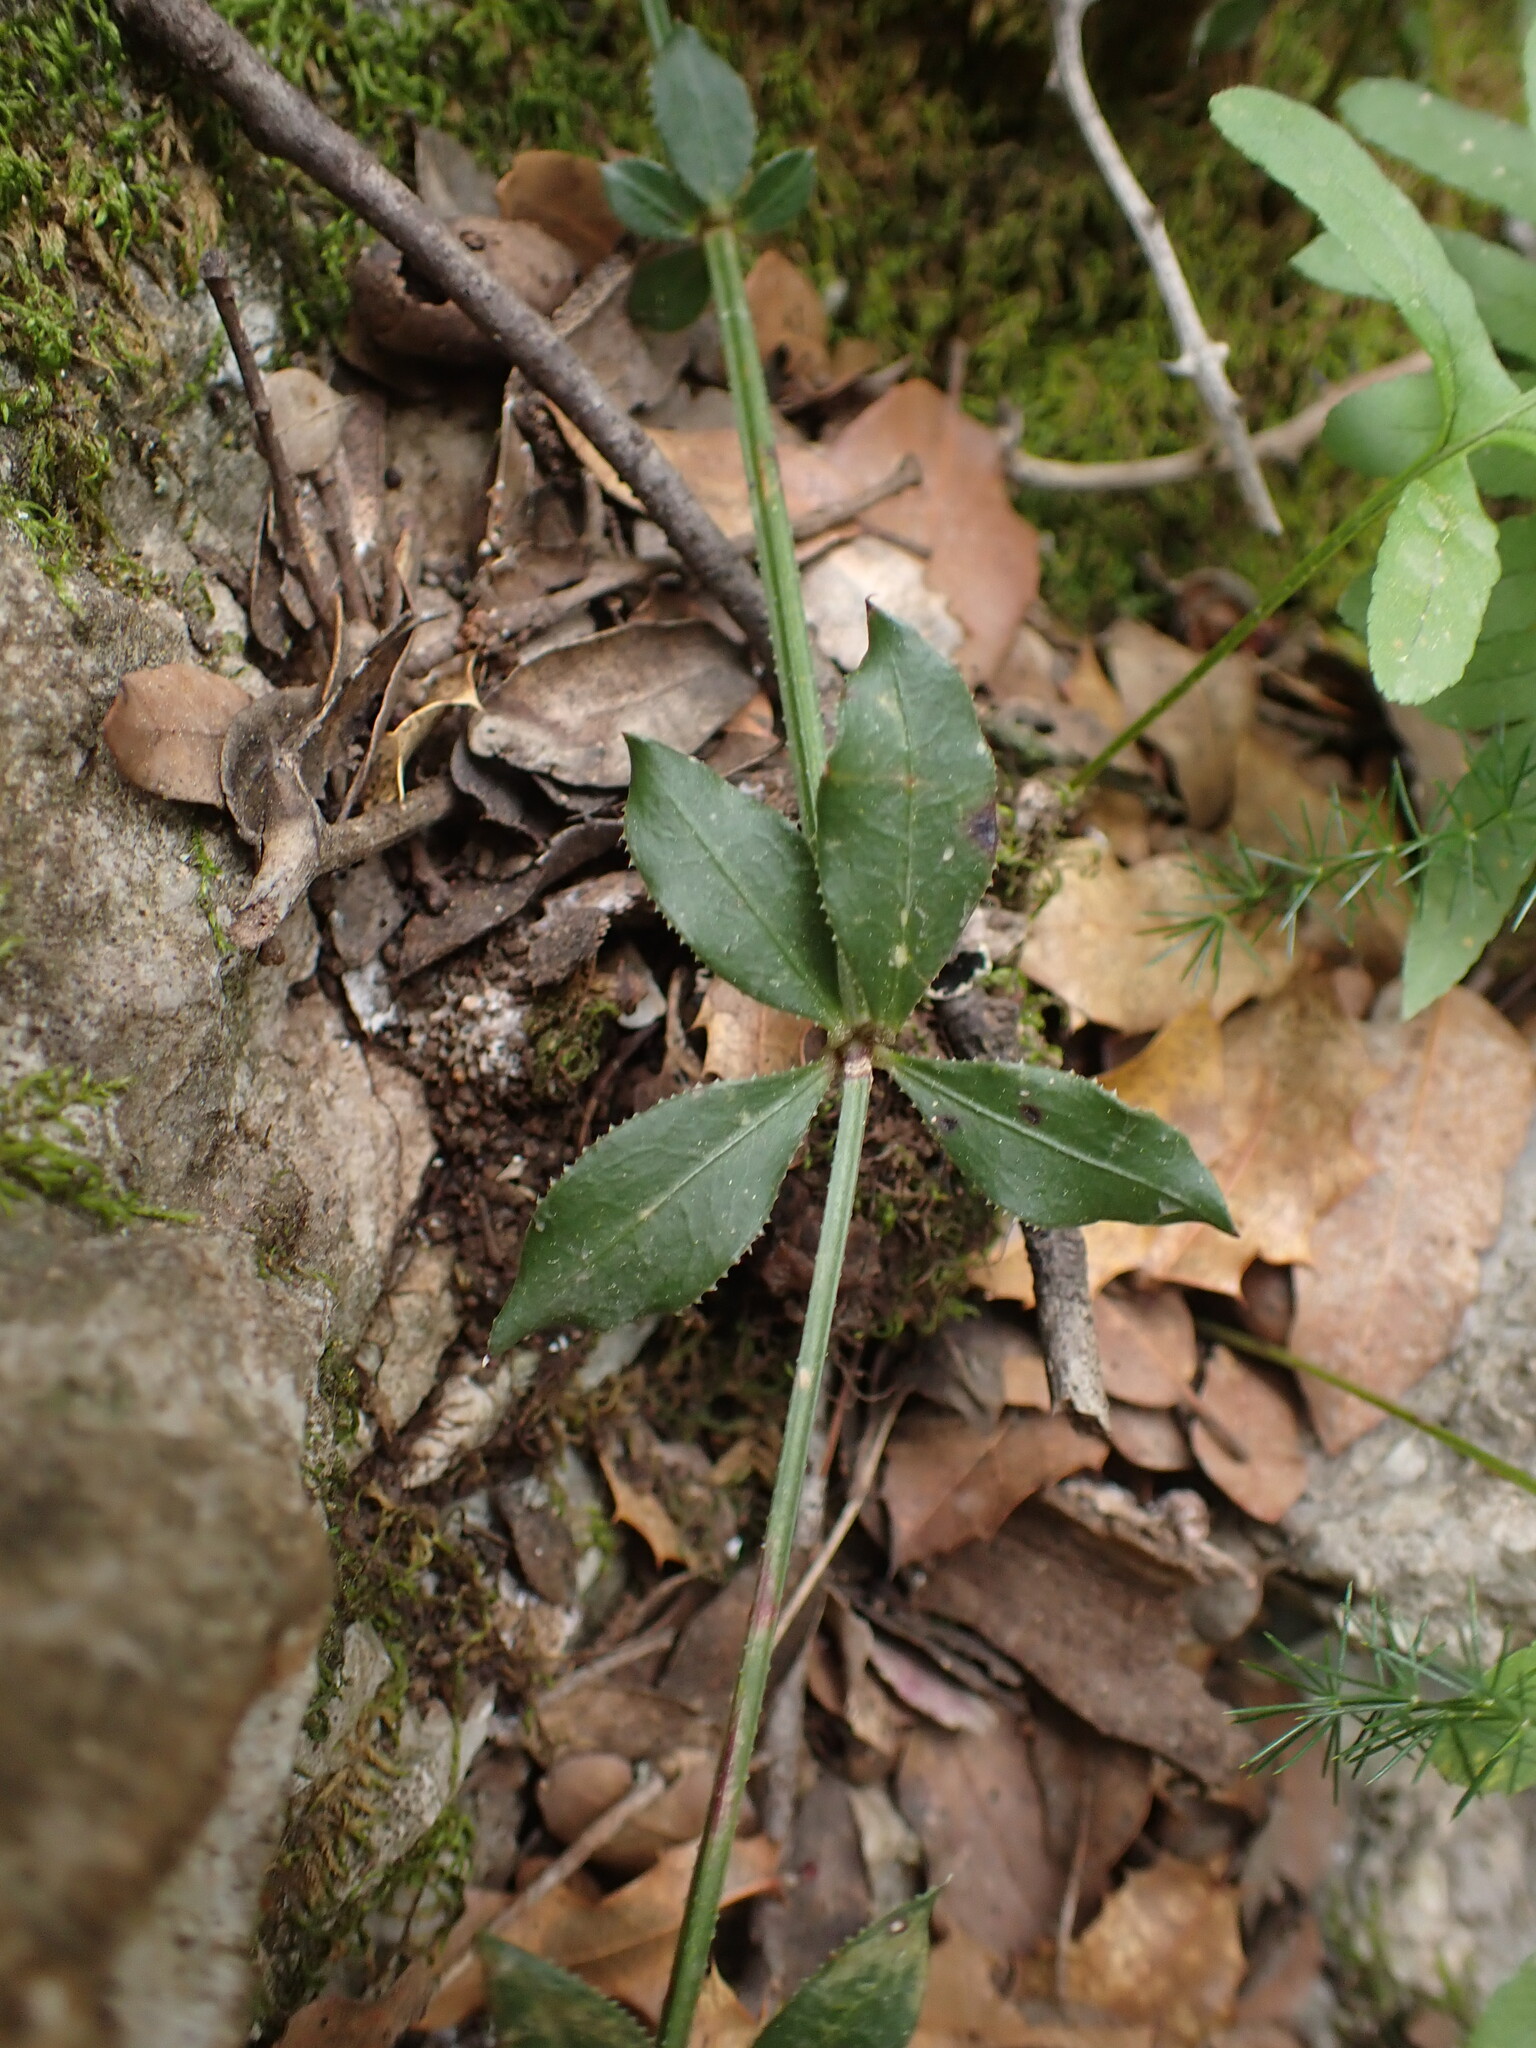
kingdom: Plantae
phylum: Tracheophyta
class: Magnoliopsida
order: Gentianales
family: Rubiaceae
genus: Rubia
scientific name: Rubia peregrina
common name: Wild madder
